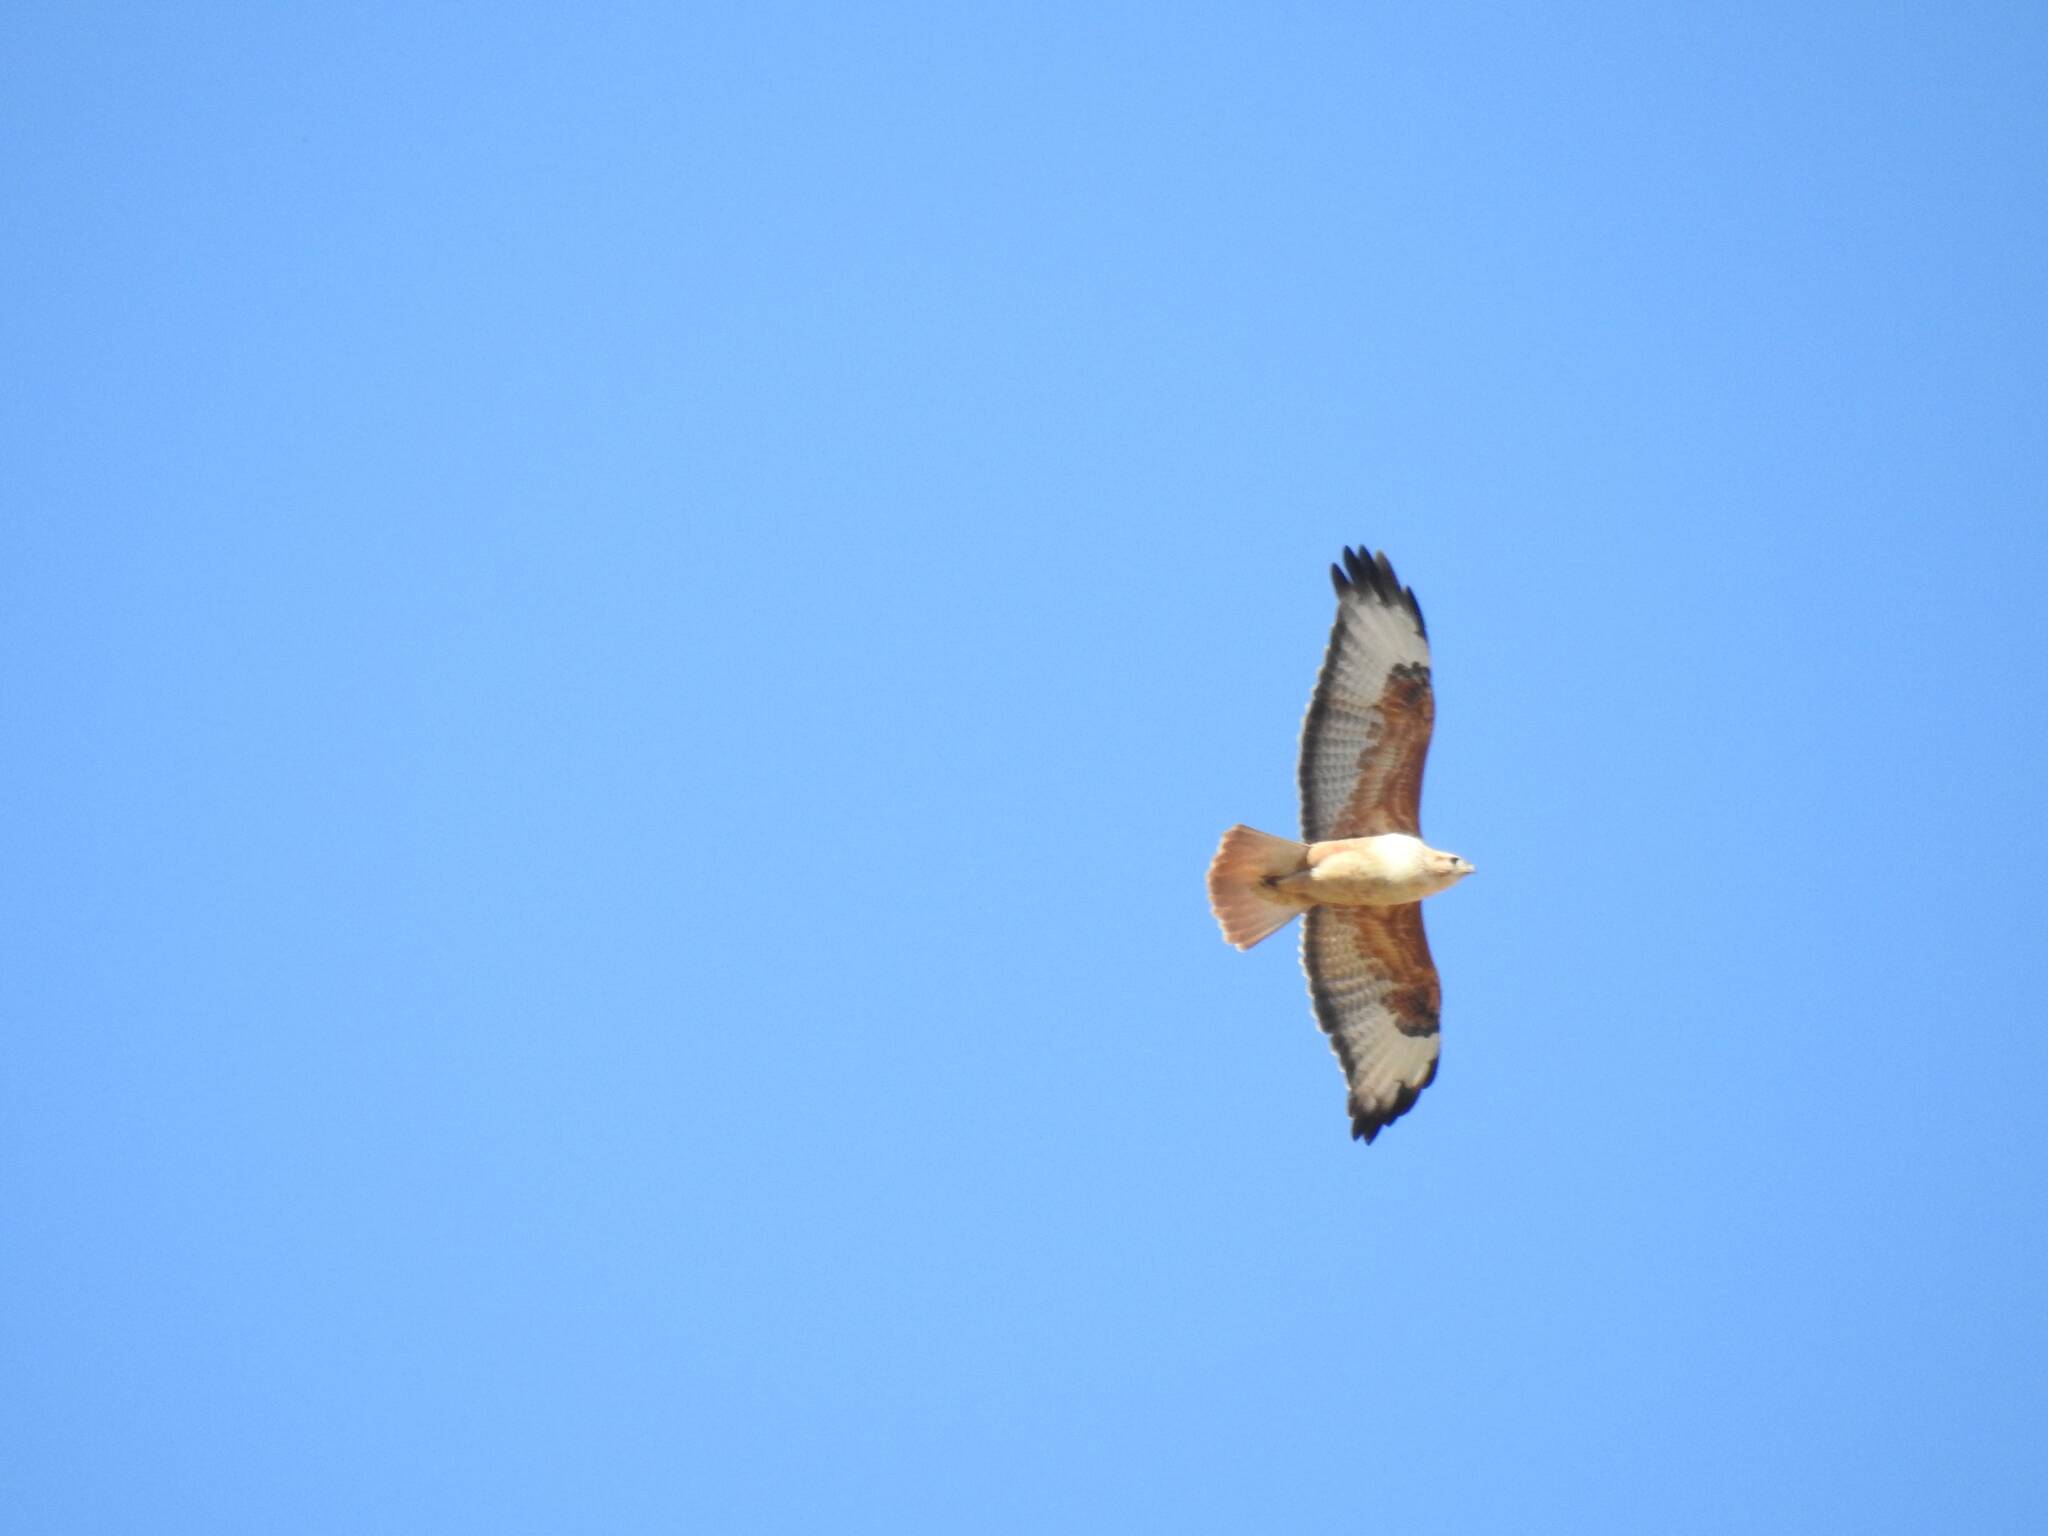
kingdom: Animalia
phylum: Chordata
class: Aves
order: Accipitriformes
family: Accipitridae
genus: Buteo
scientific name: Buteo rufinus
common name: Long-legged buzzard
